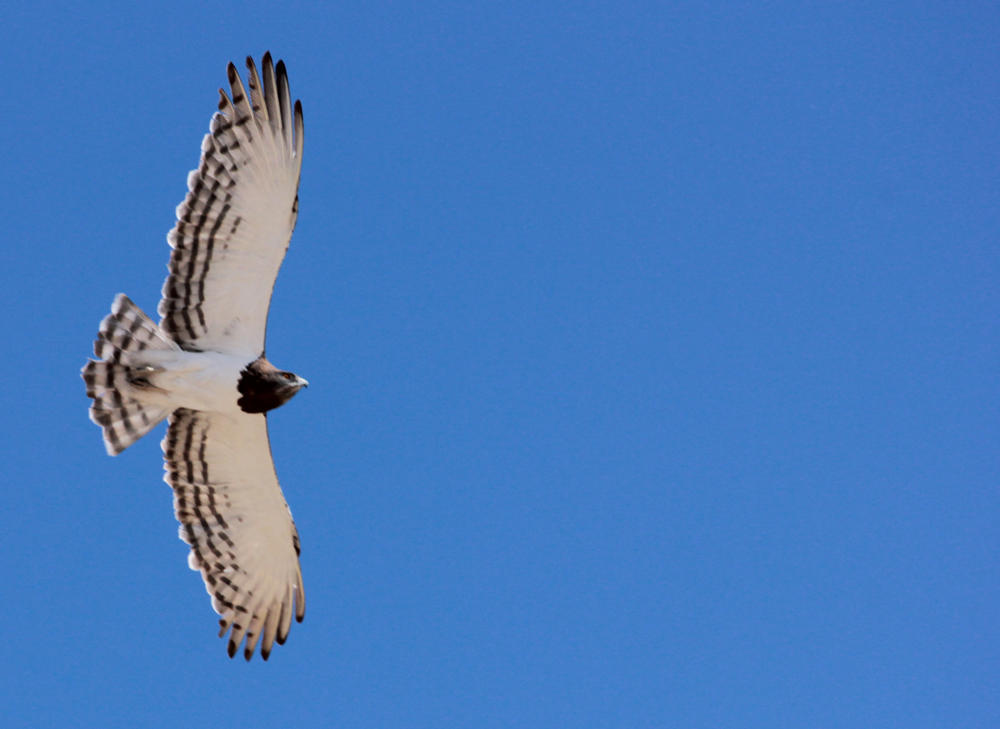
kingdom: Animalia
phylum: Chordata
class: Aves
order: Accipitriformes
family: Accipitridae
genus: Circaetus
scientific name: Circaetus pectoralis
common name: Black-chested snake eagle
